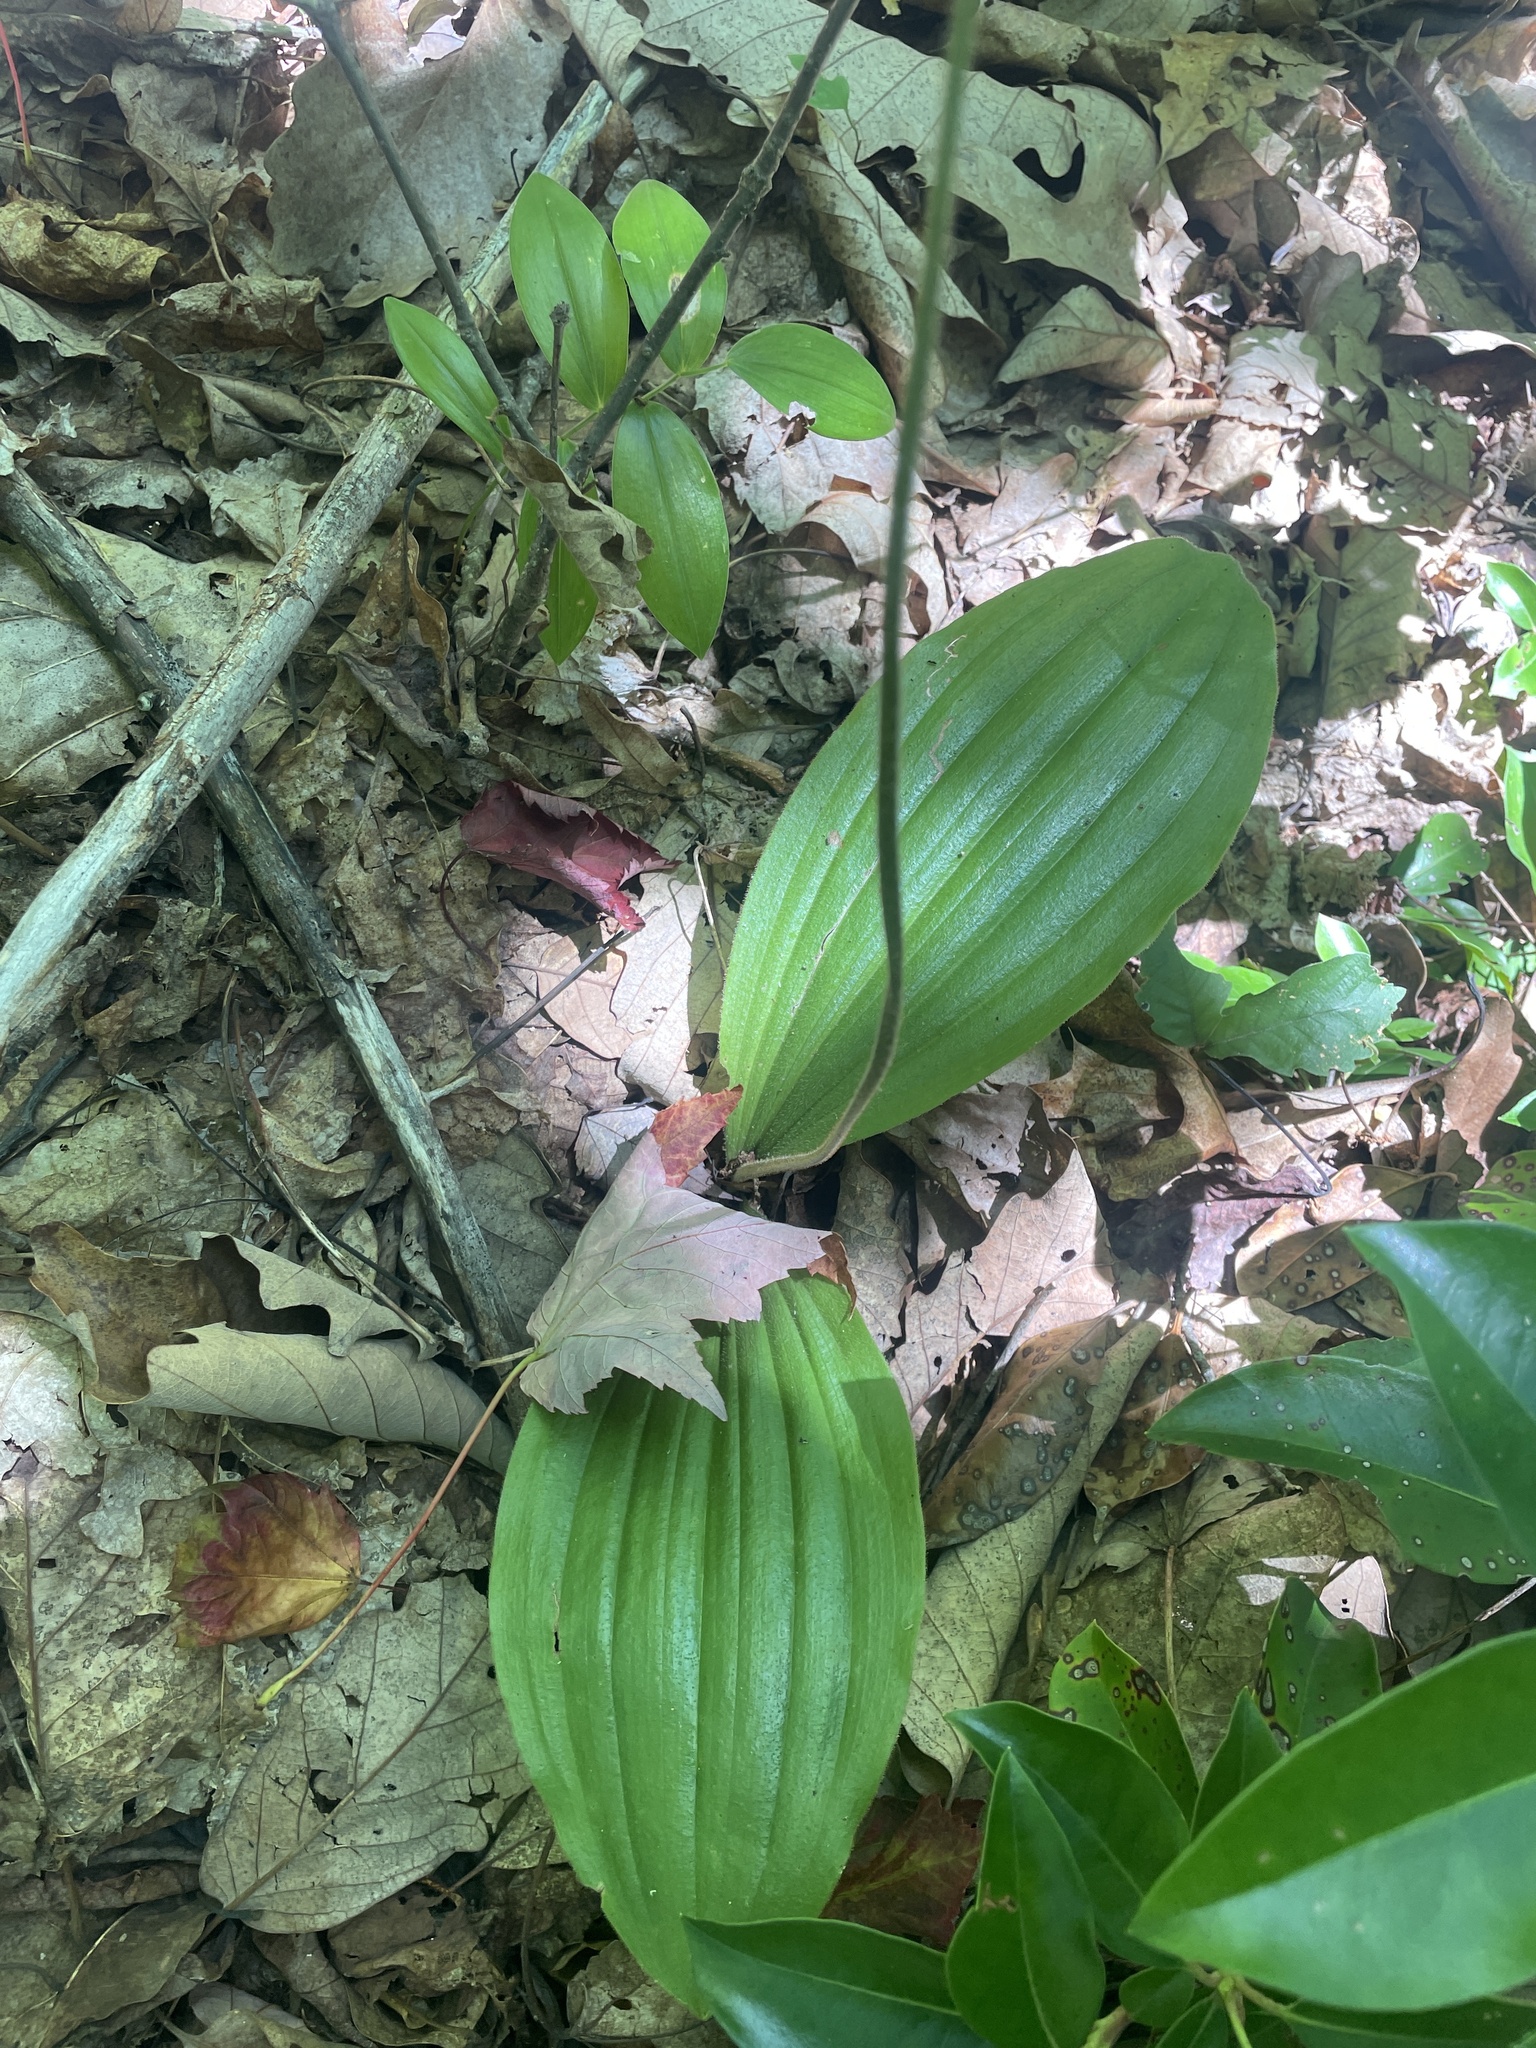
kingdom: Plantae
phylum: Tracheophyta
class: Liliopsida
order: Asparagales
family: Orchidaceae
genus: Cypripedium
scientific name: Cypripedium acaule
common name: Pink lady's-slipper
